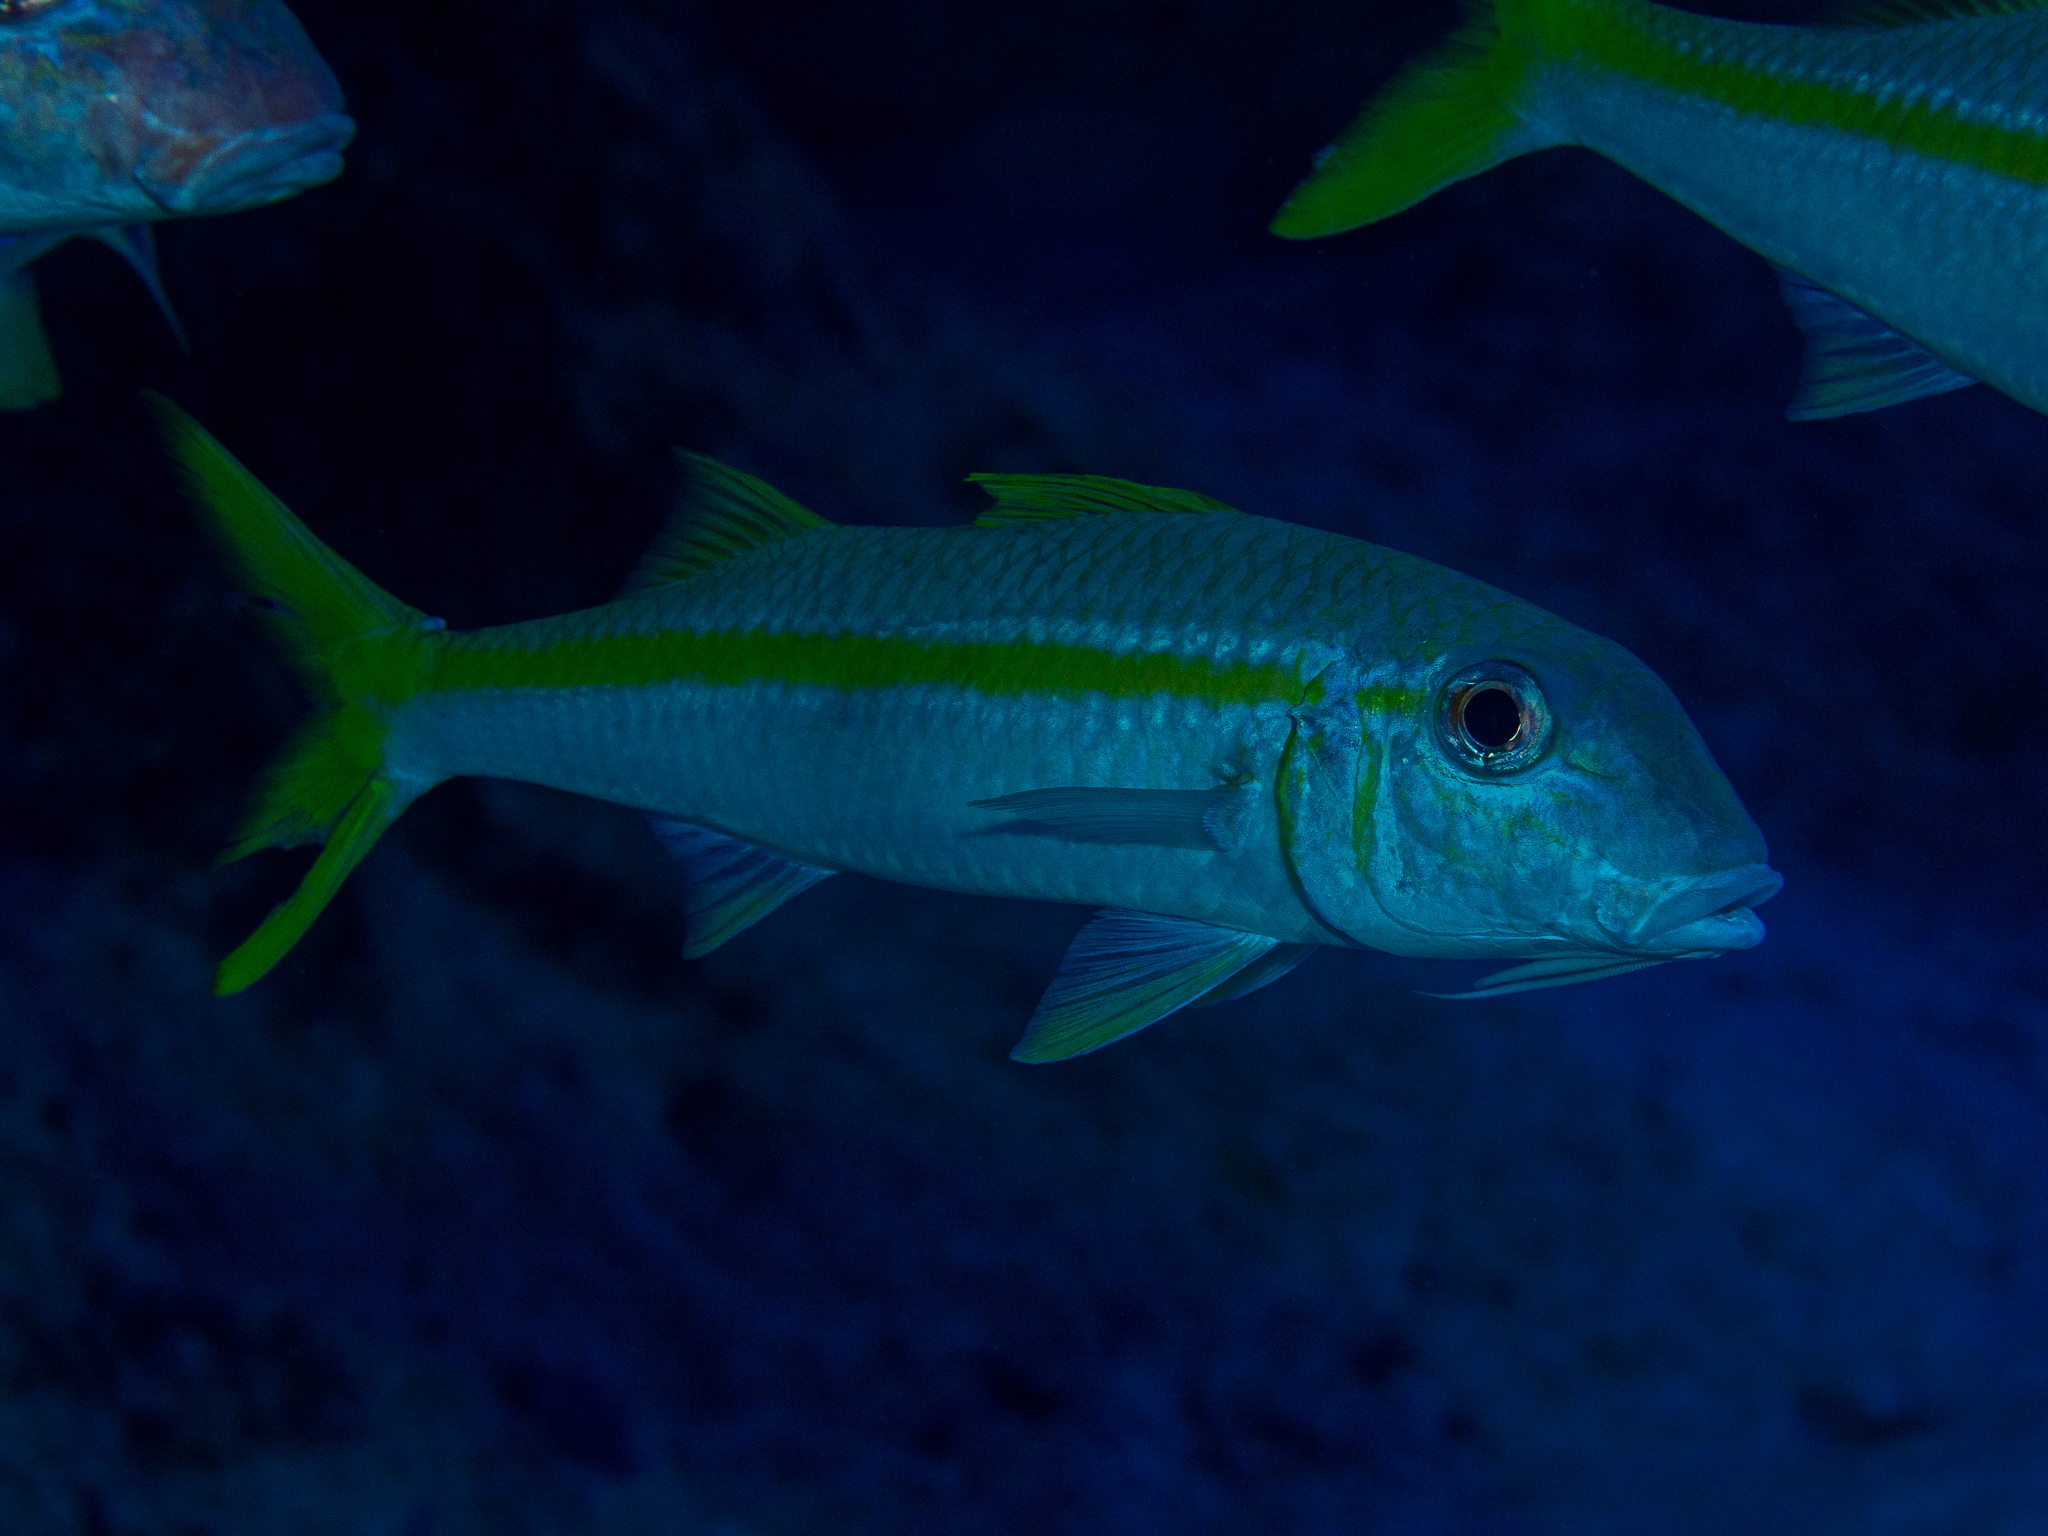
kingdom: Animalia
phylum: Chordata
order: Perciformes
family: Mullidae
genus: Mulloidichthys
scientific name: Mulloidichthys martinicus
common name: Yellow goatfish
